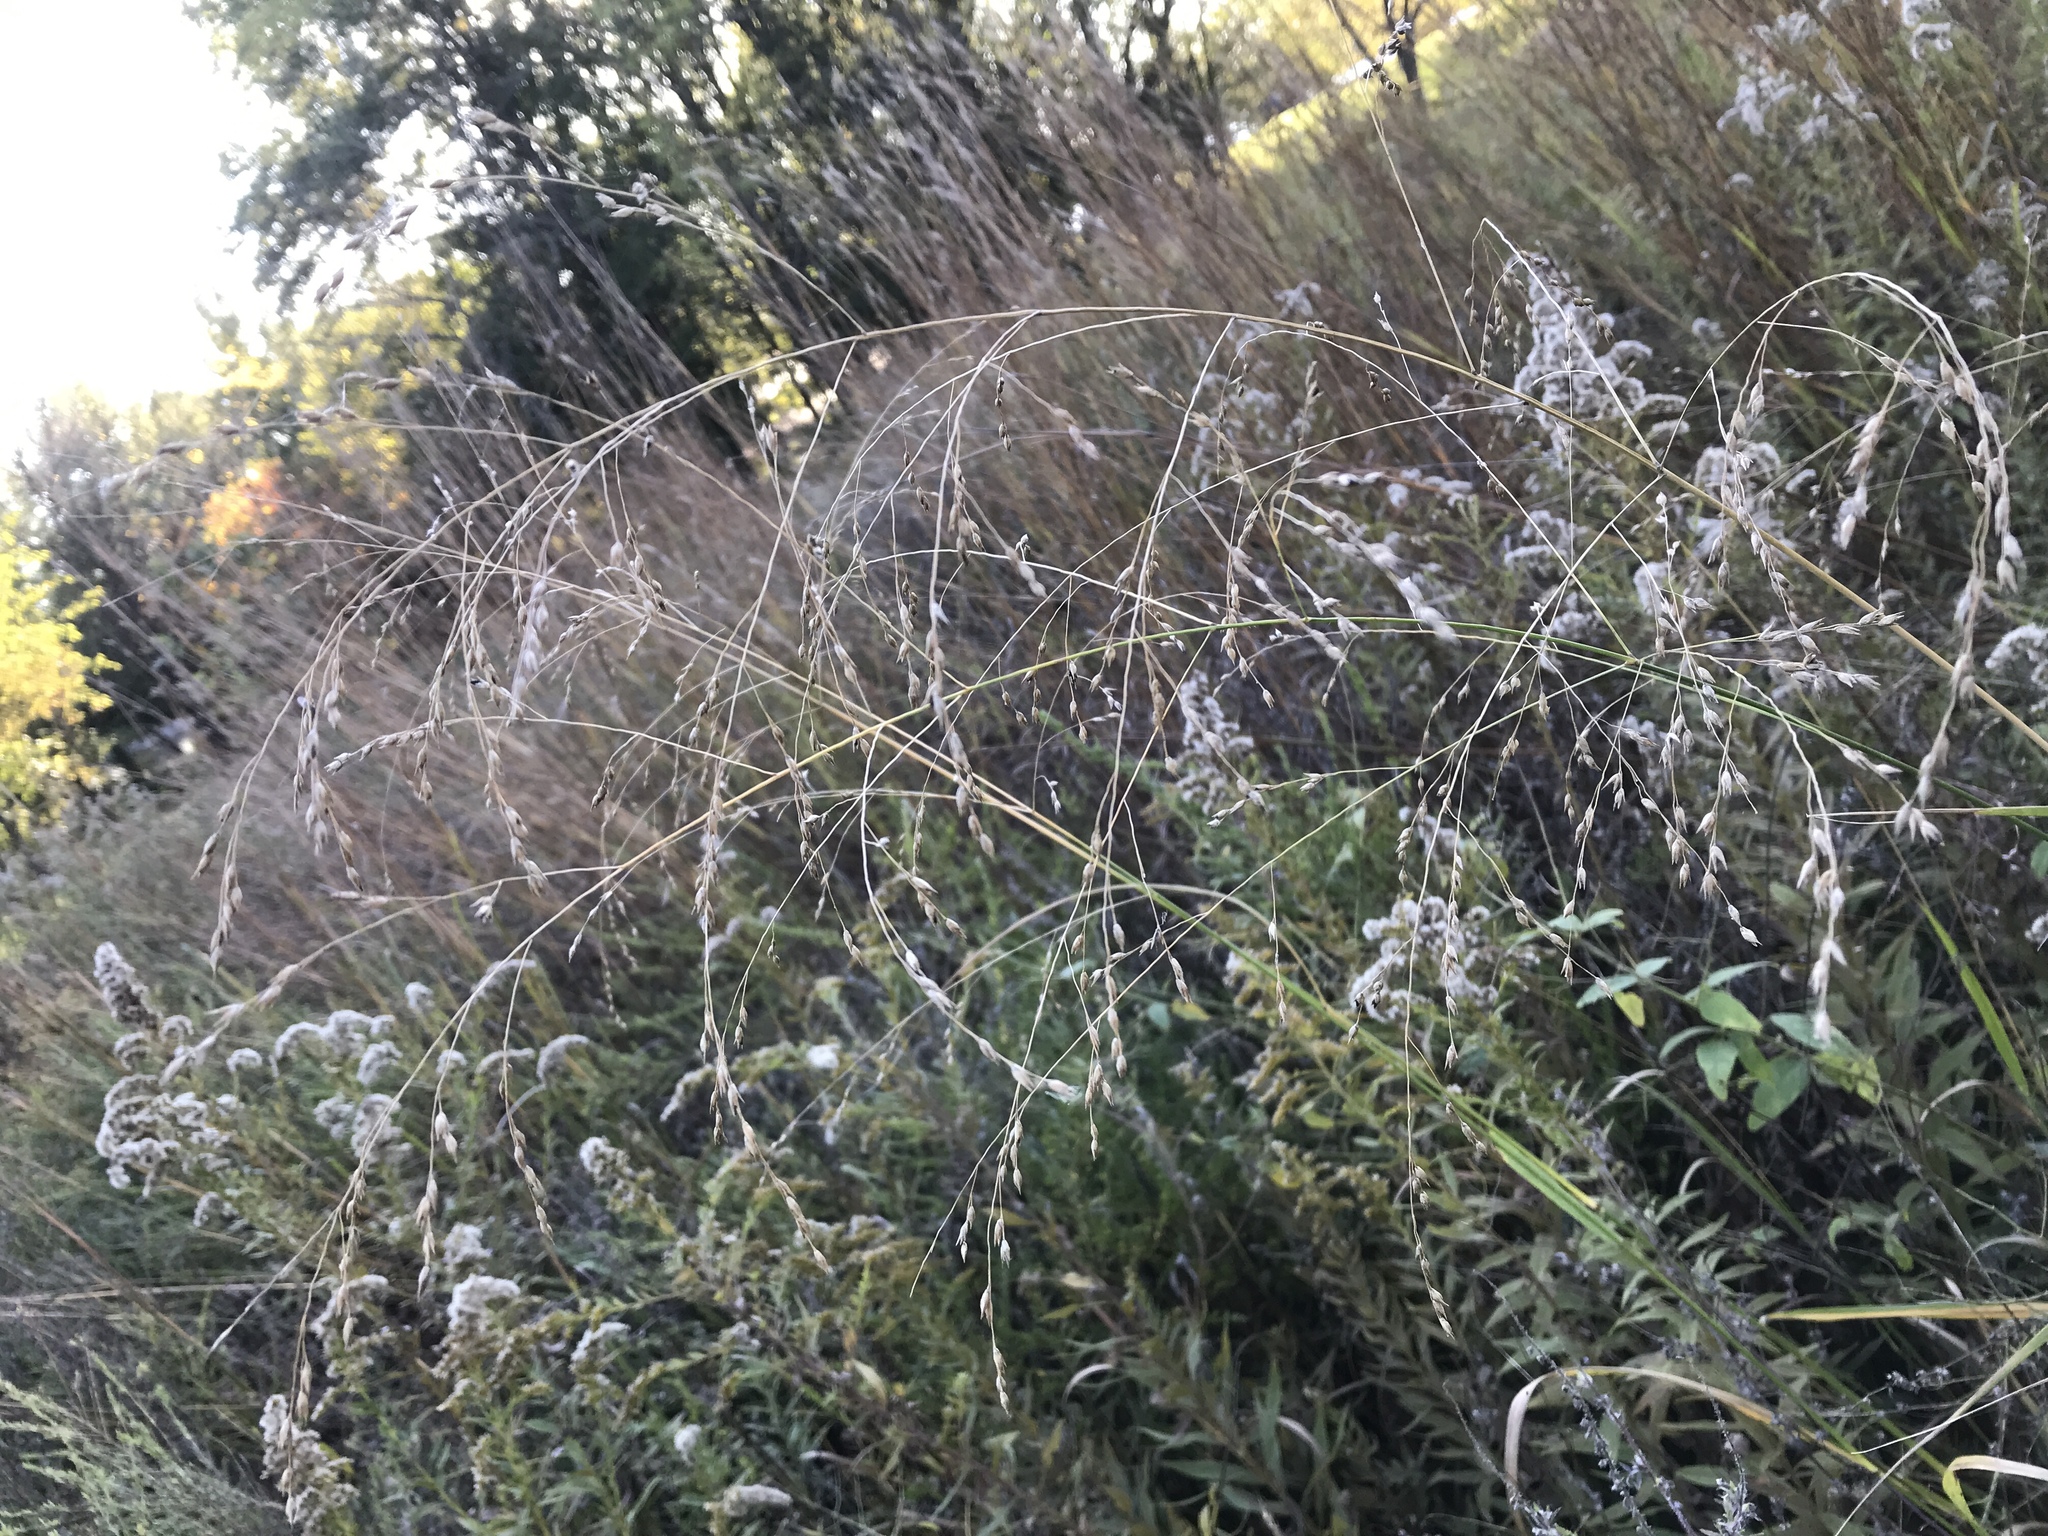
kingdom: Plantae
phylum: Tracheophyta
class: Liliopsida
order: Poales
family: Poaceae
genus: Panicum
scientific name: Panicum virgatum
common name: Switchgrass
